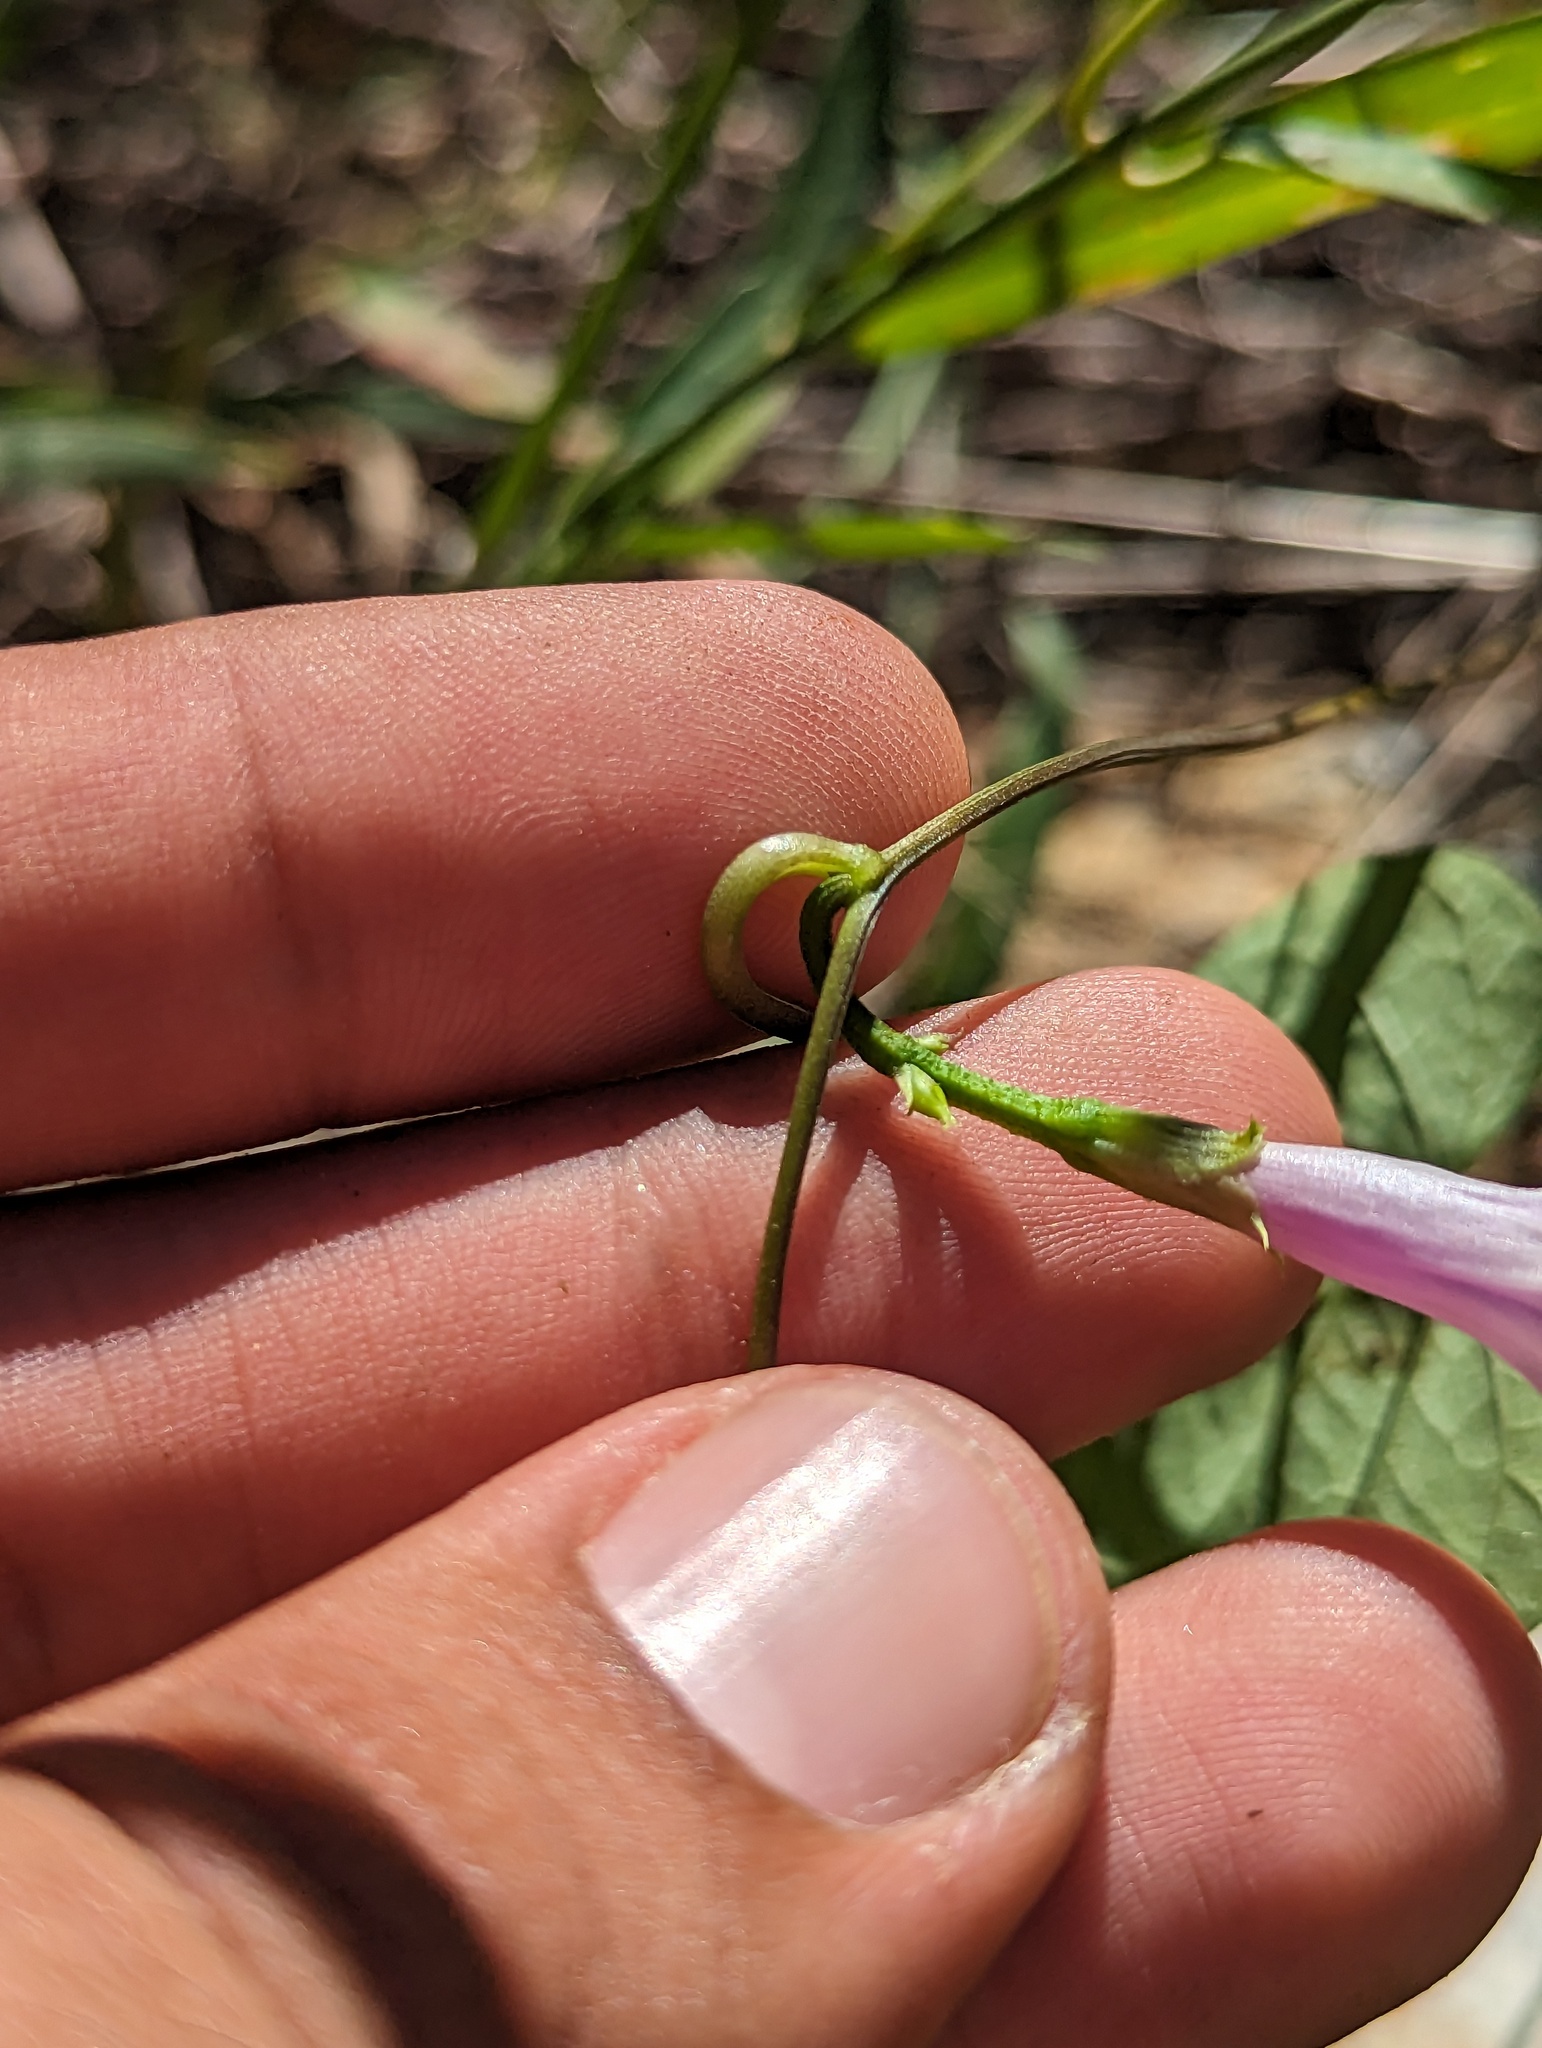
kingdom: Plantae
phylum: Tracheophyta
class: Magnoliopsida
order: Solanales
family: Convolvulaceae
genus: Ipomoea
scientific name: Ipomoea triloba
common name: Little-bell
